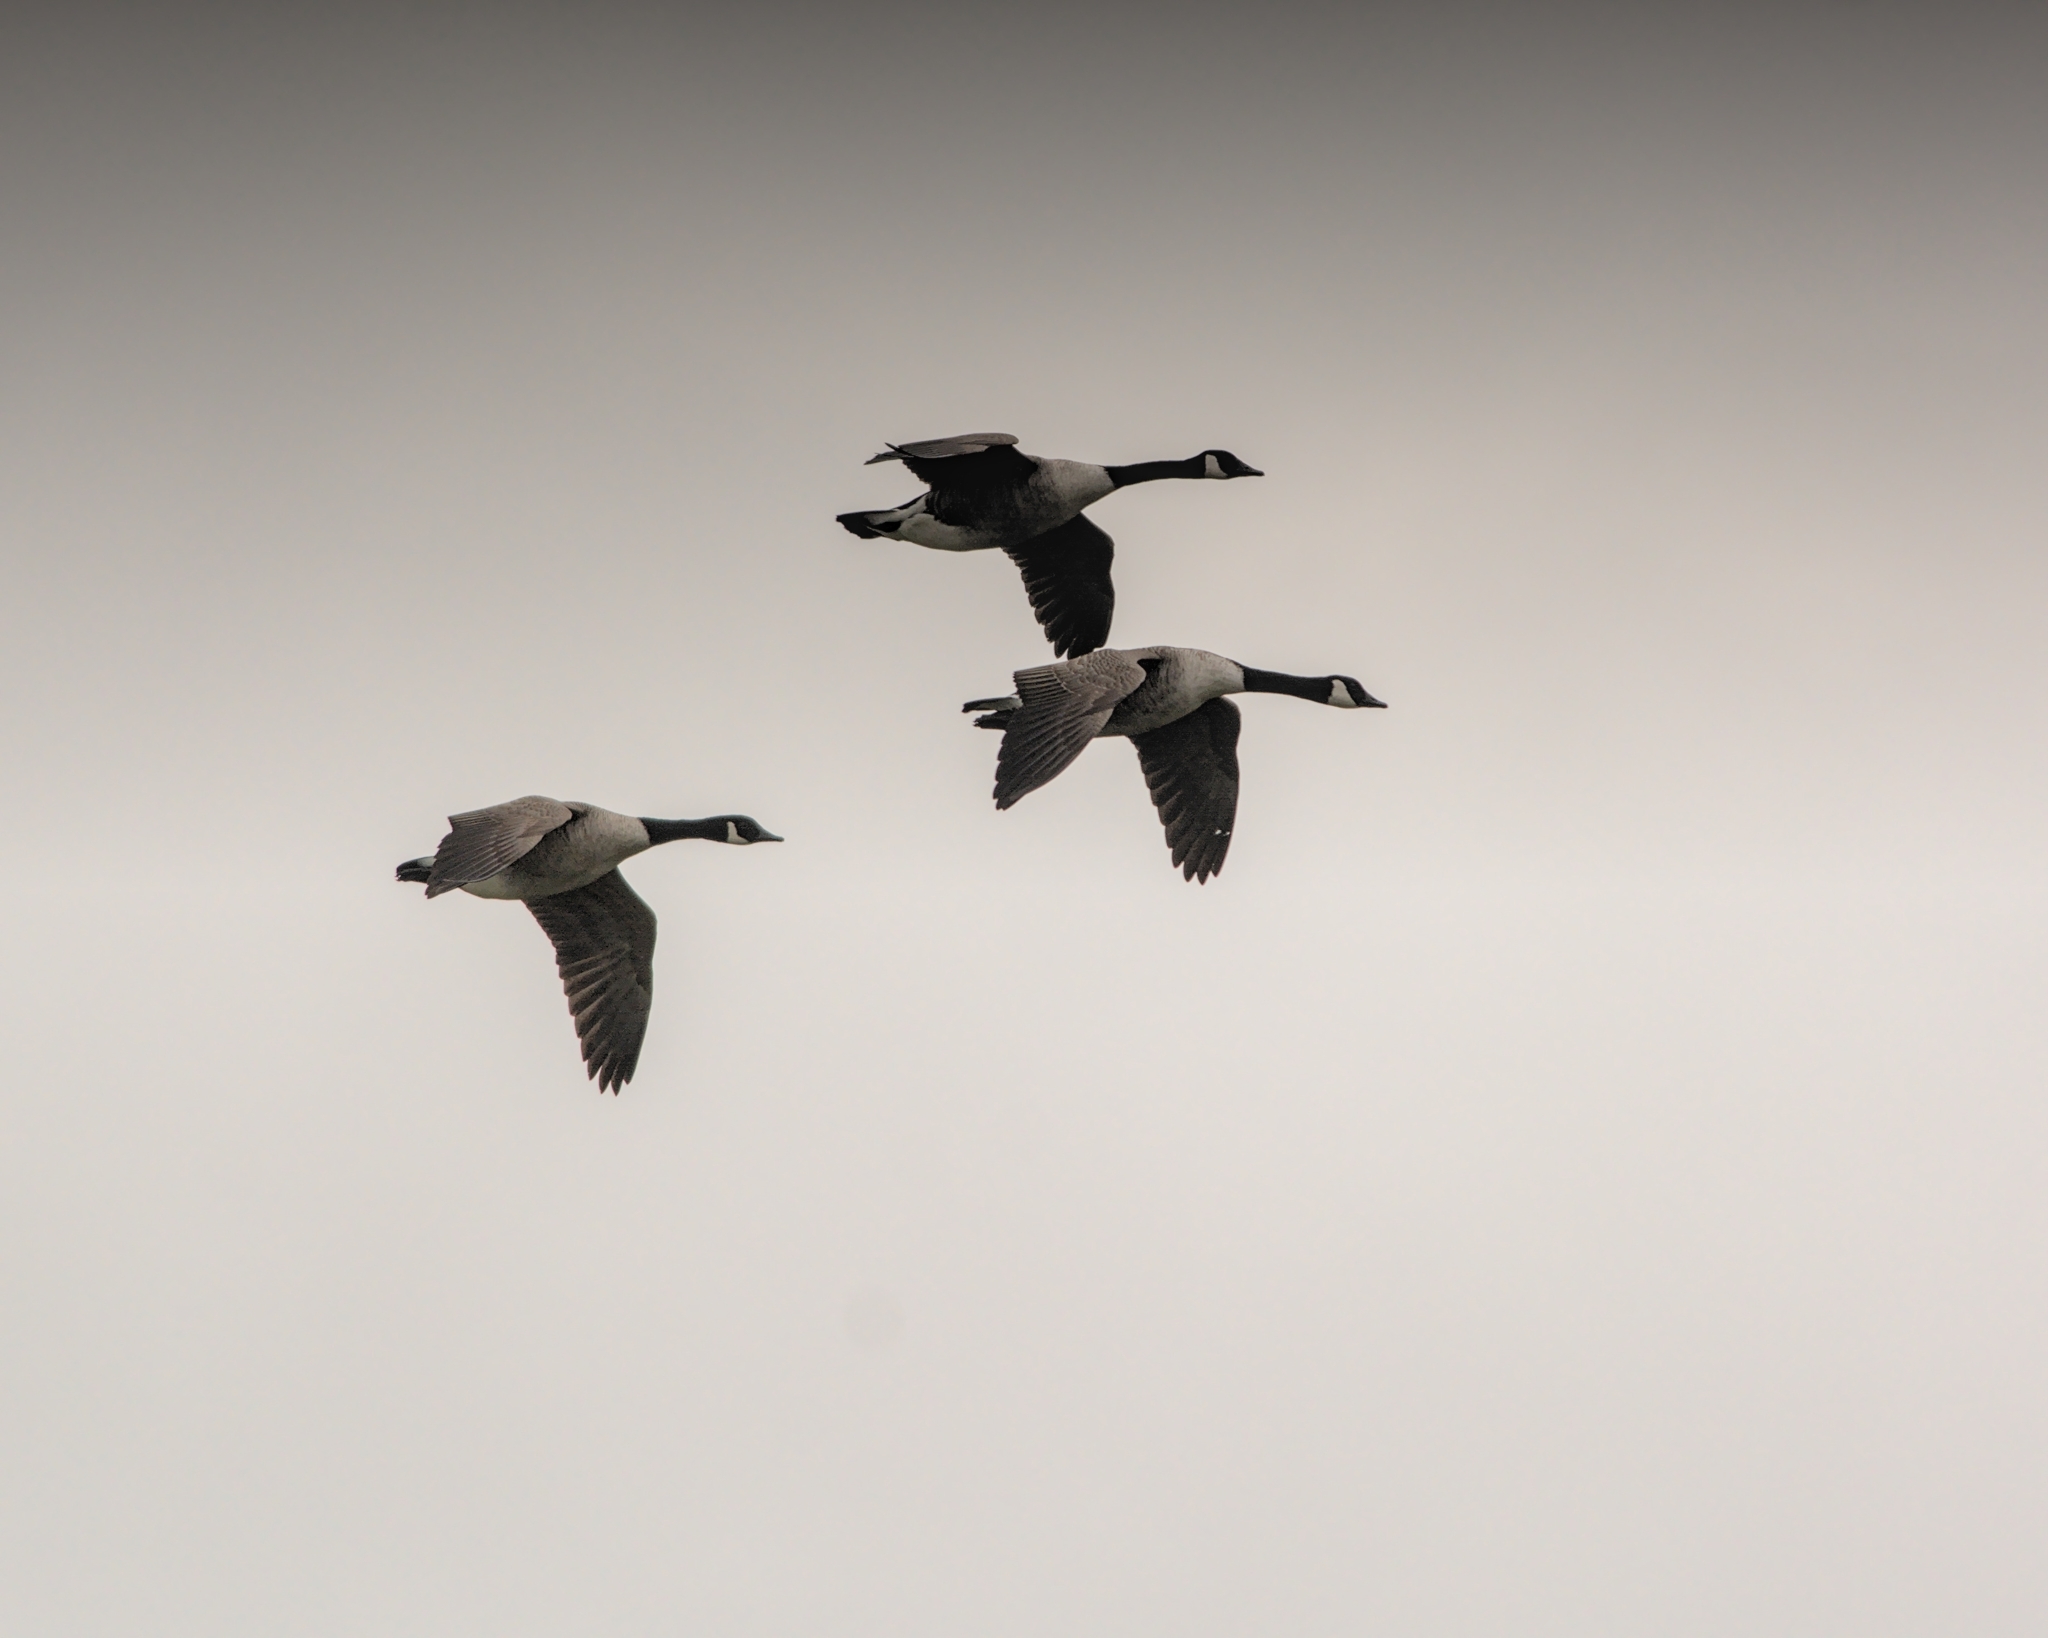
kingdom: Animalia
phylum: Chordata
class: Aves
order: Anseriformes
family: Anatidae
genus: Branta
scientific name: Branta canadensis
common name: Canada goose
